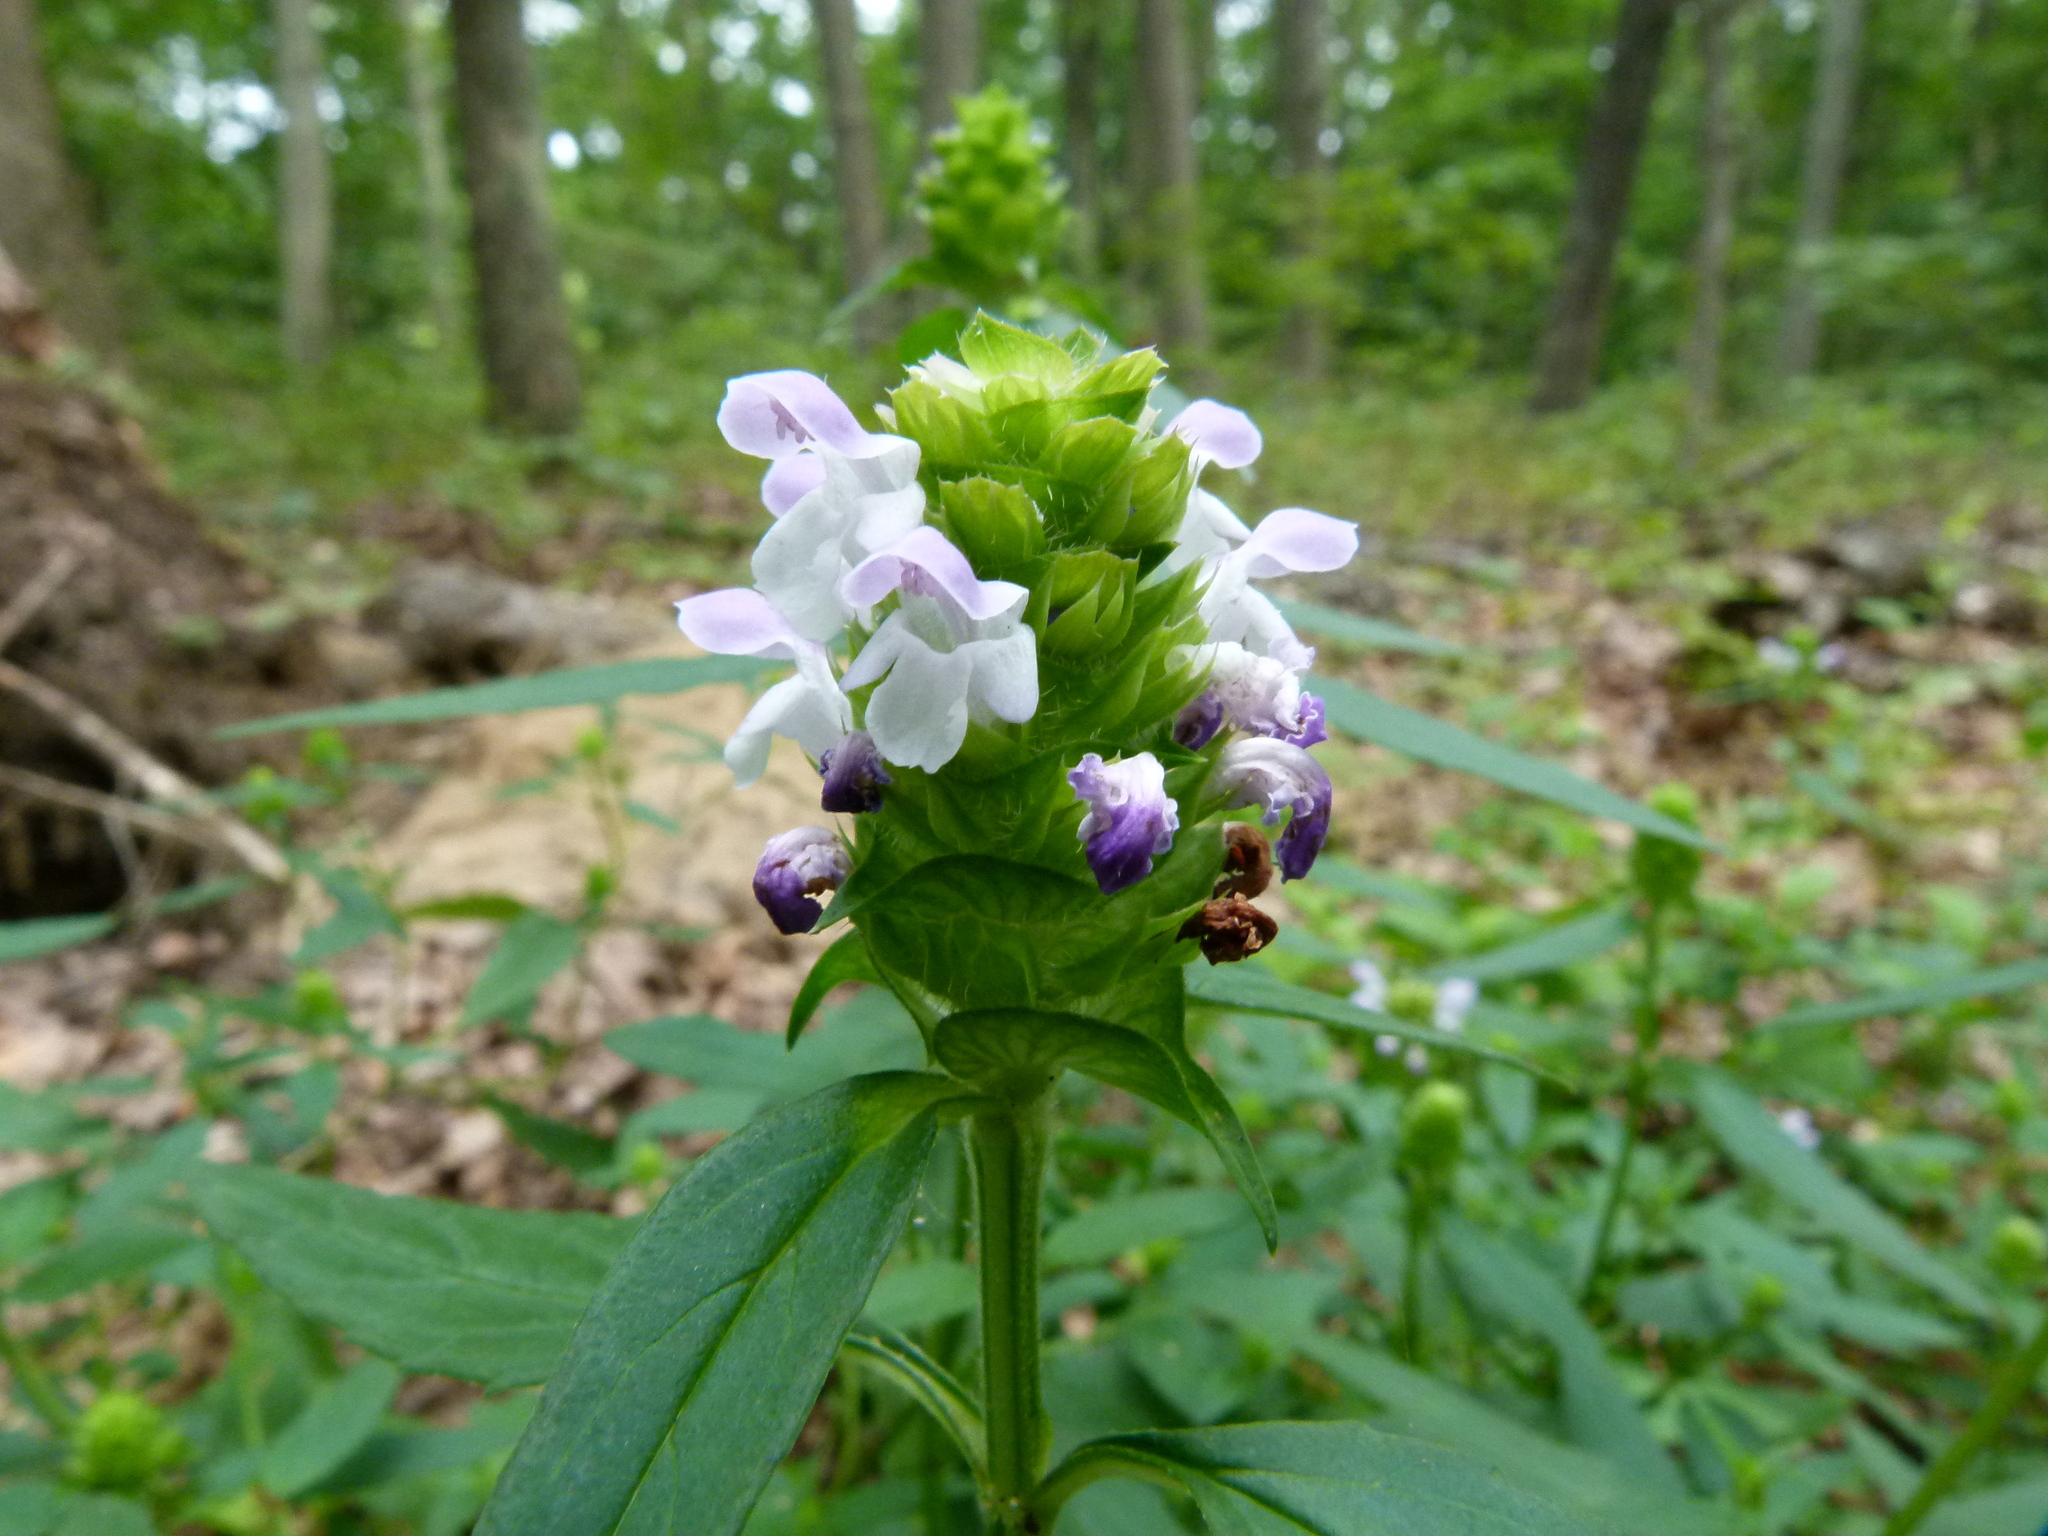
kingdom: Plantae
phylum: Tracheophyta
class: Magnoliopsida
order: Lamiales
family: Lamiaceae
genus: Prunella
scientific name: Prunella vulgaris
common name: Heal-all
